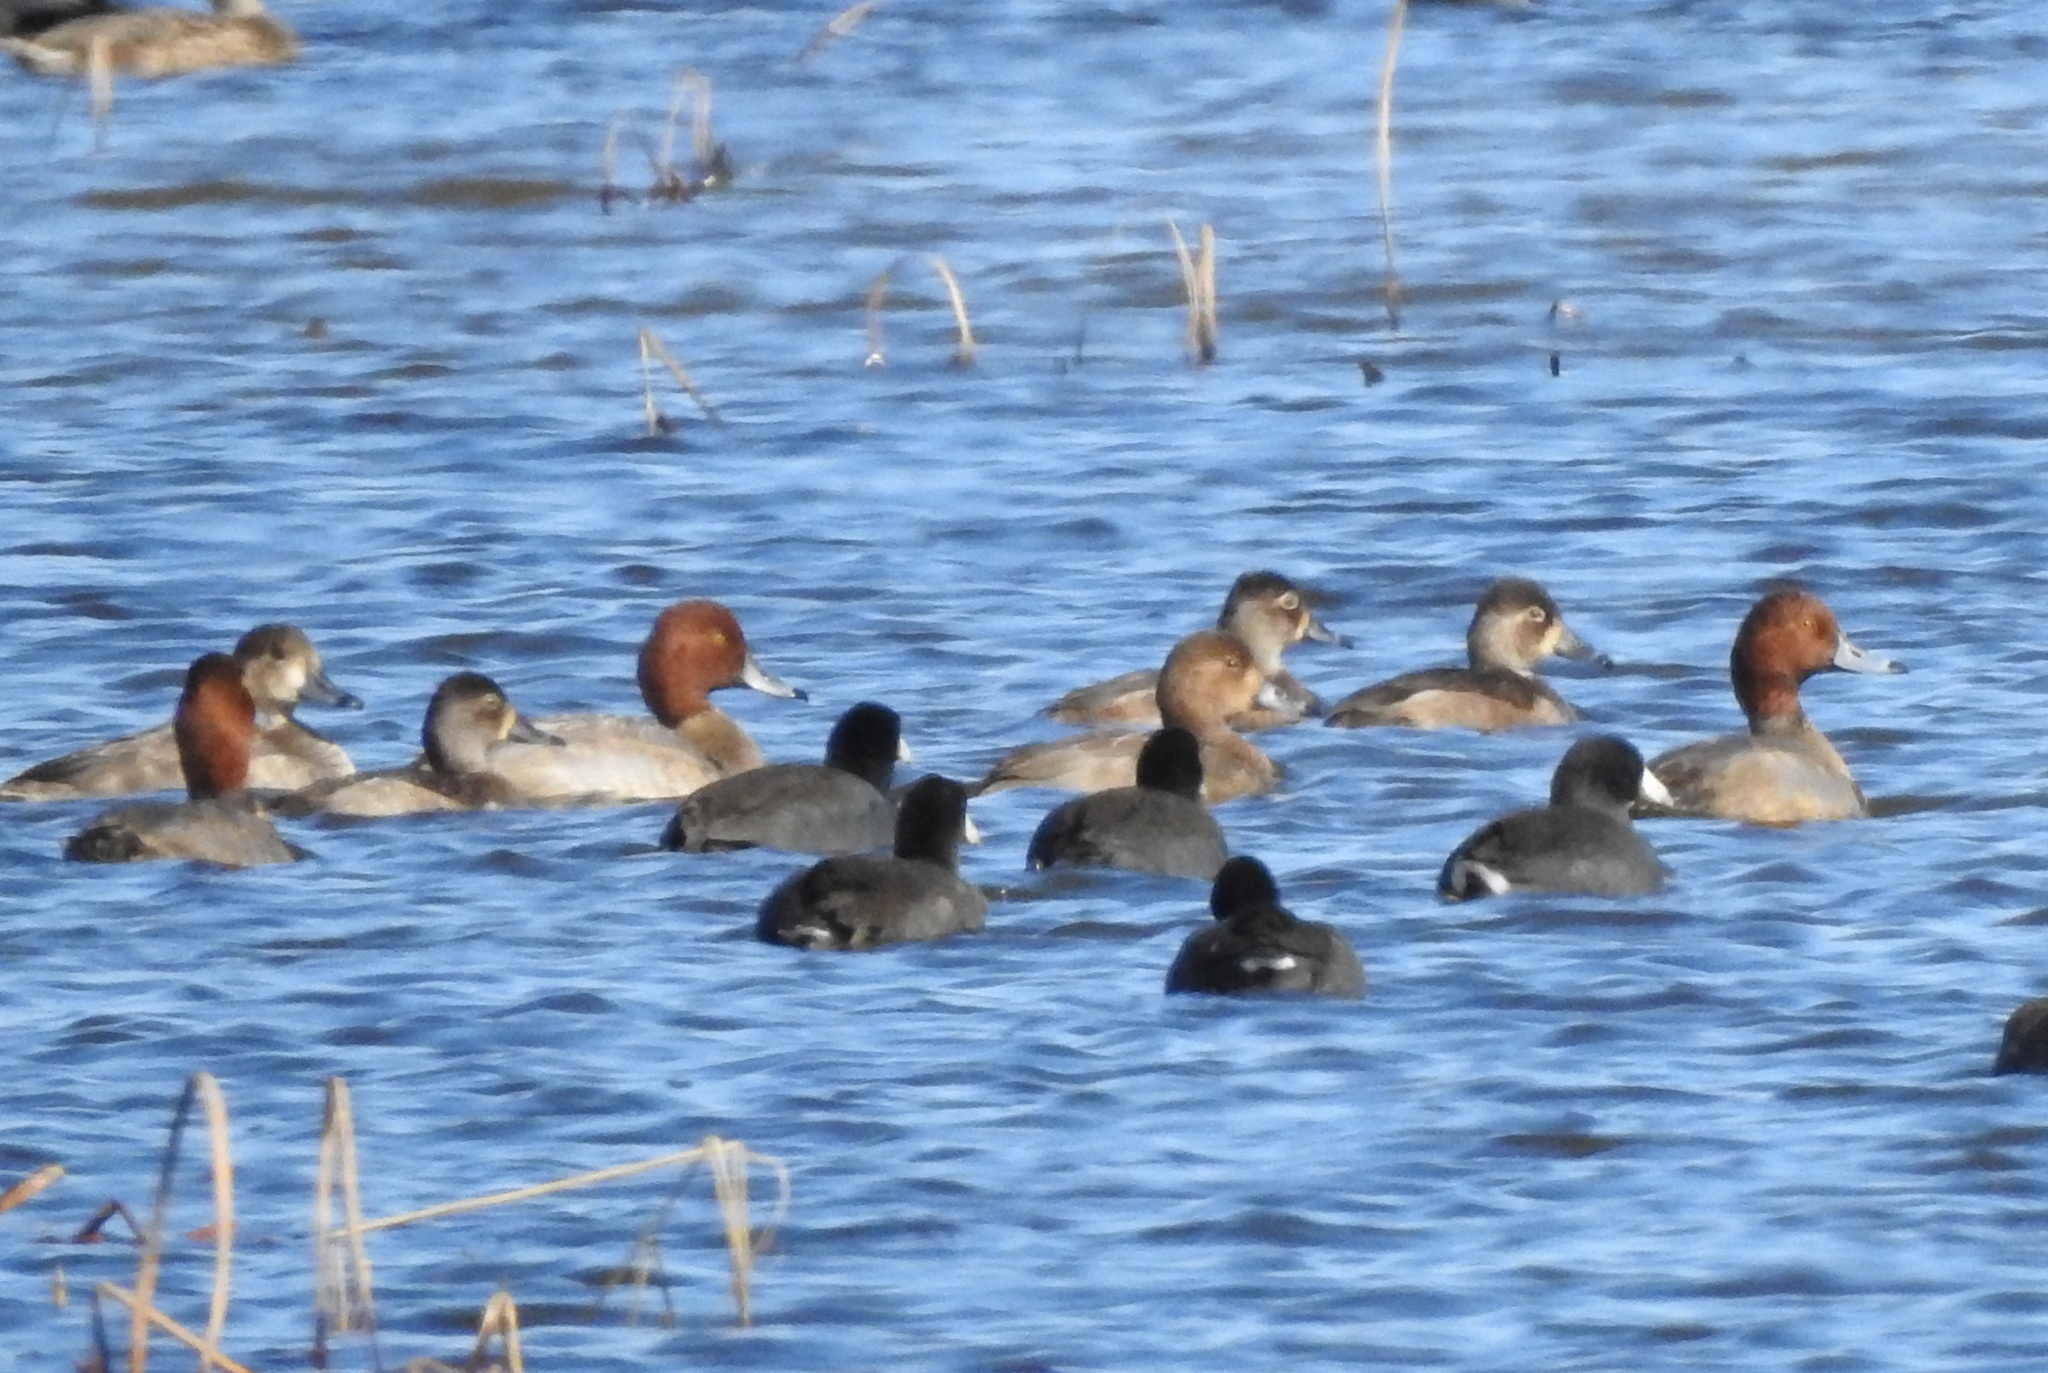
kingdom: Animalia
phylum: Chordata
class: Aves
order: Anseriformes
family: Anatidae
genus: Aythya
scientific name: Aythya americana
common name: Redhead
